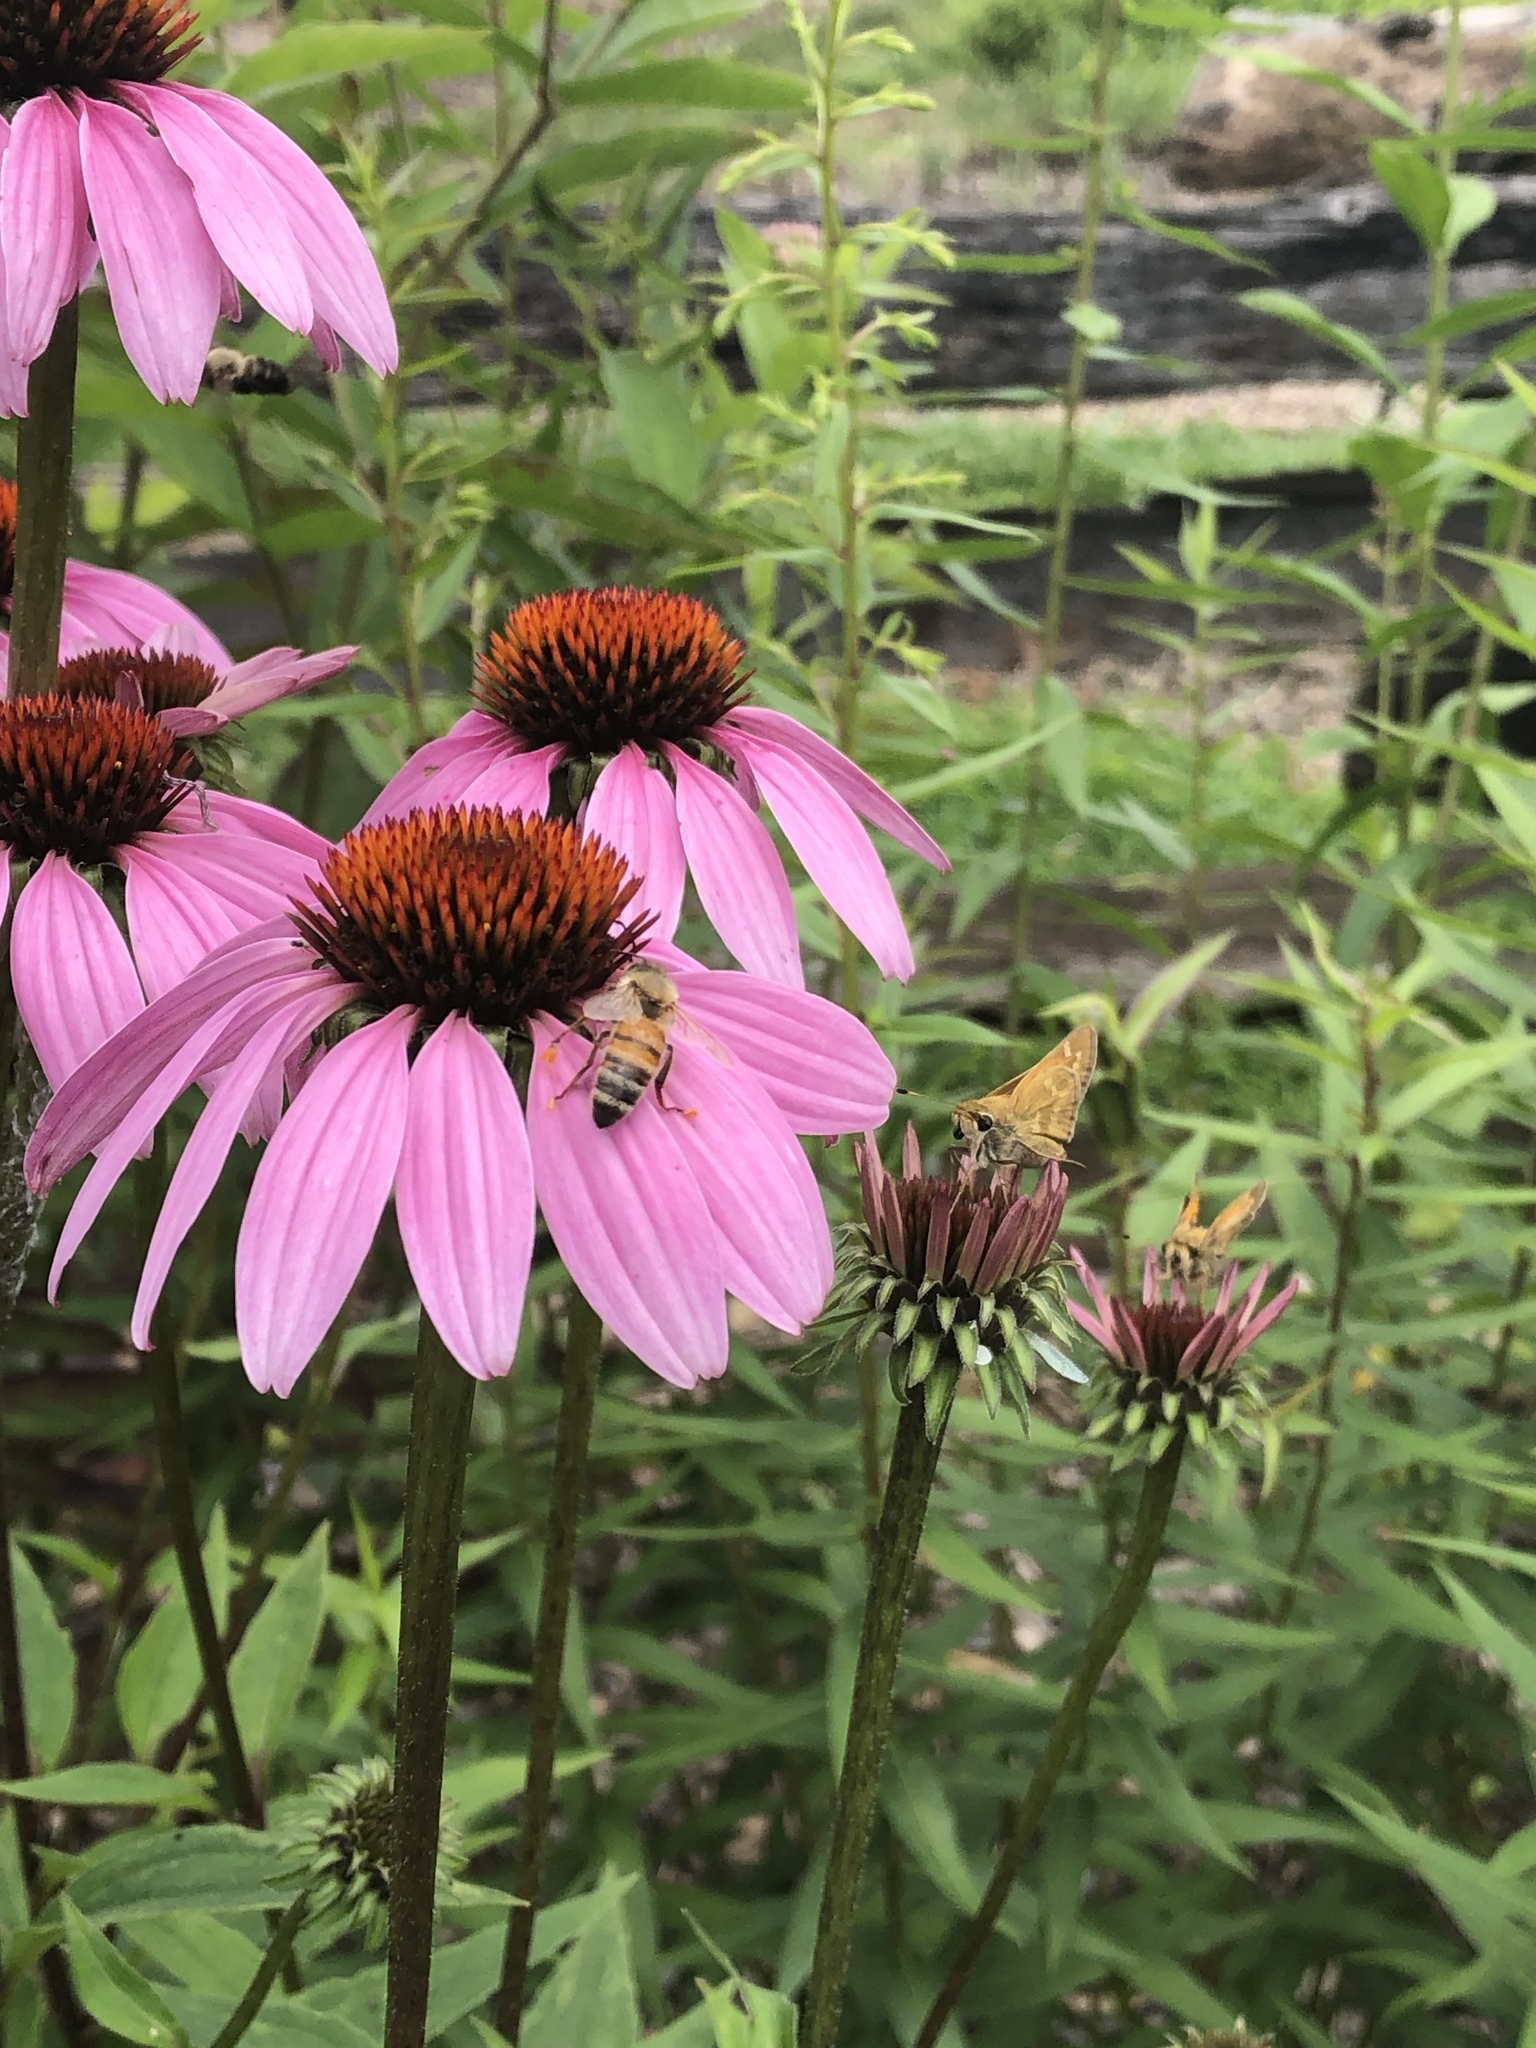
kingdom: Animalia
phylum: Arthropoda
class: Insecta
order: Lepidoptera
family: Hesperiidae
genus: Atalopedes
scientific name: Atalopedes
